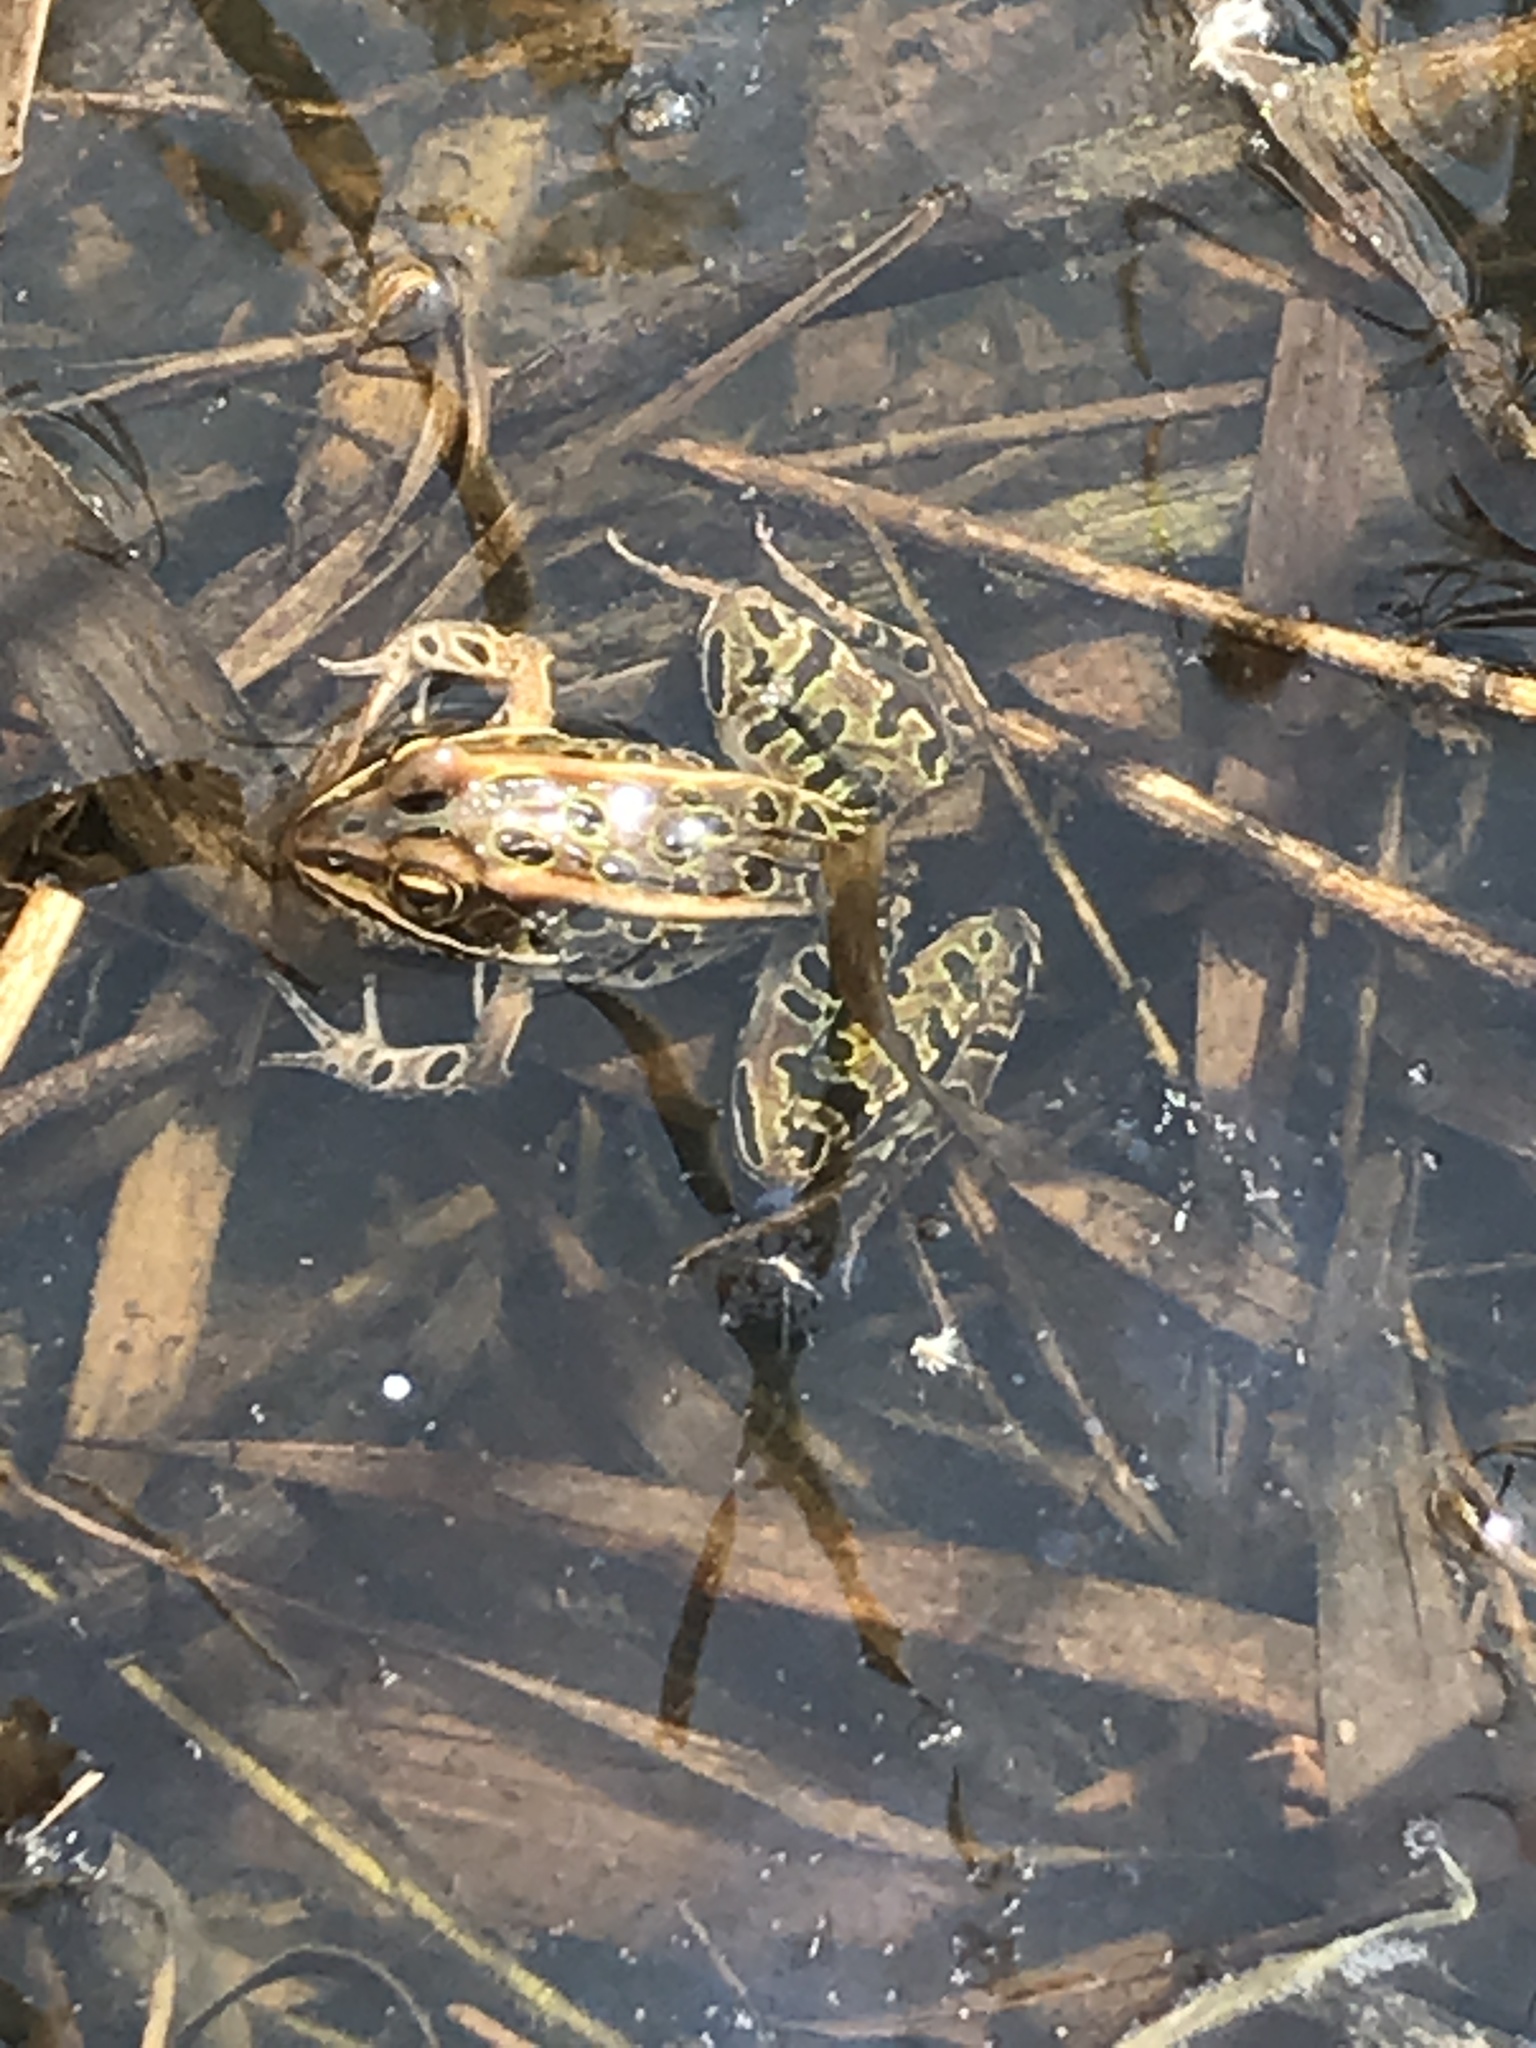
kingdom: Animalia
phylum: Chordata
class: Amphibia
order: Anura
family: Ranidae
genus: Lithobates
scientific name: Lithobates pipiens
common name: Northern leopard frog
